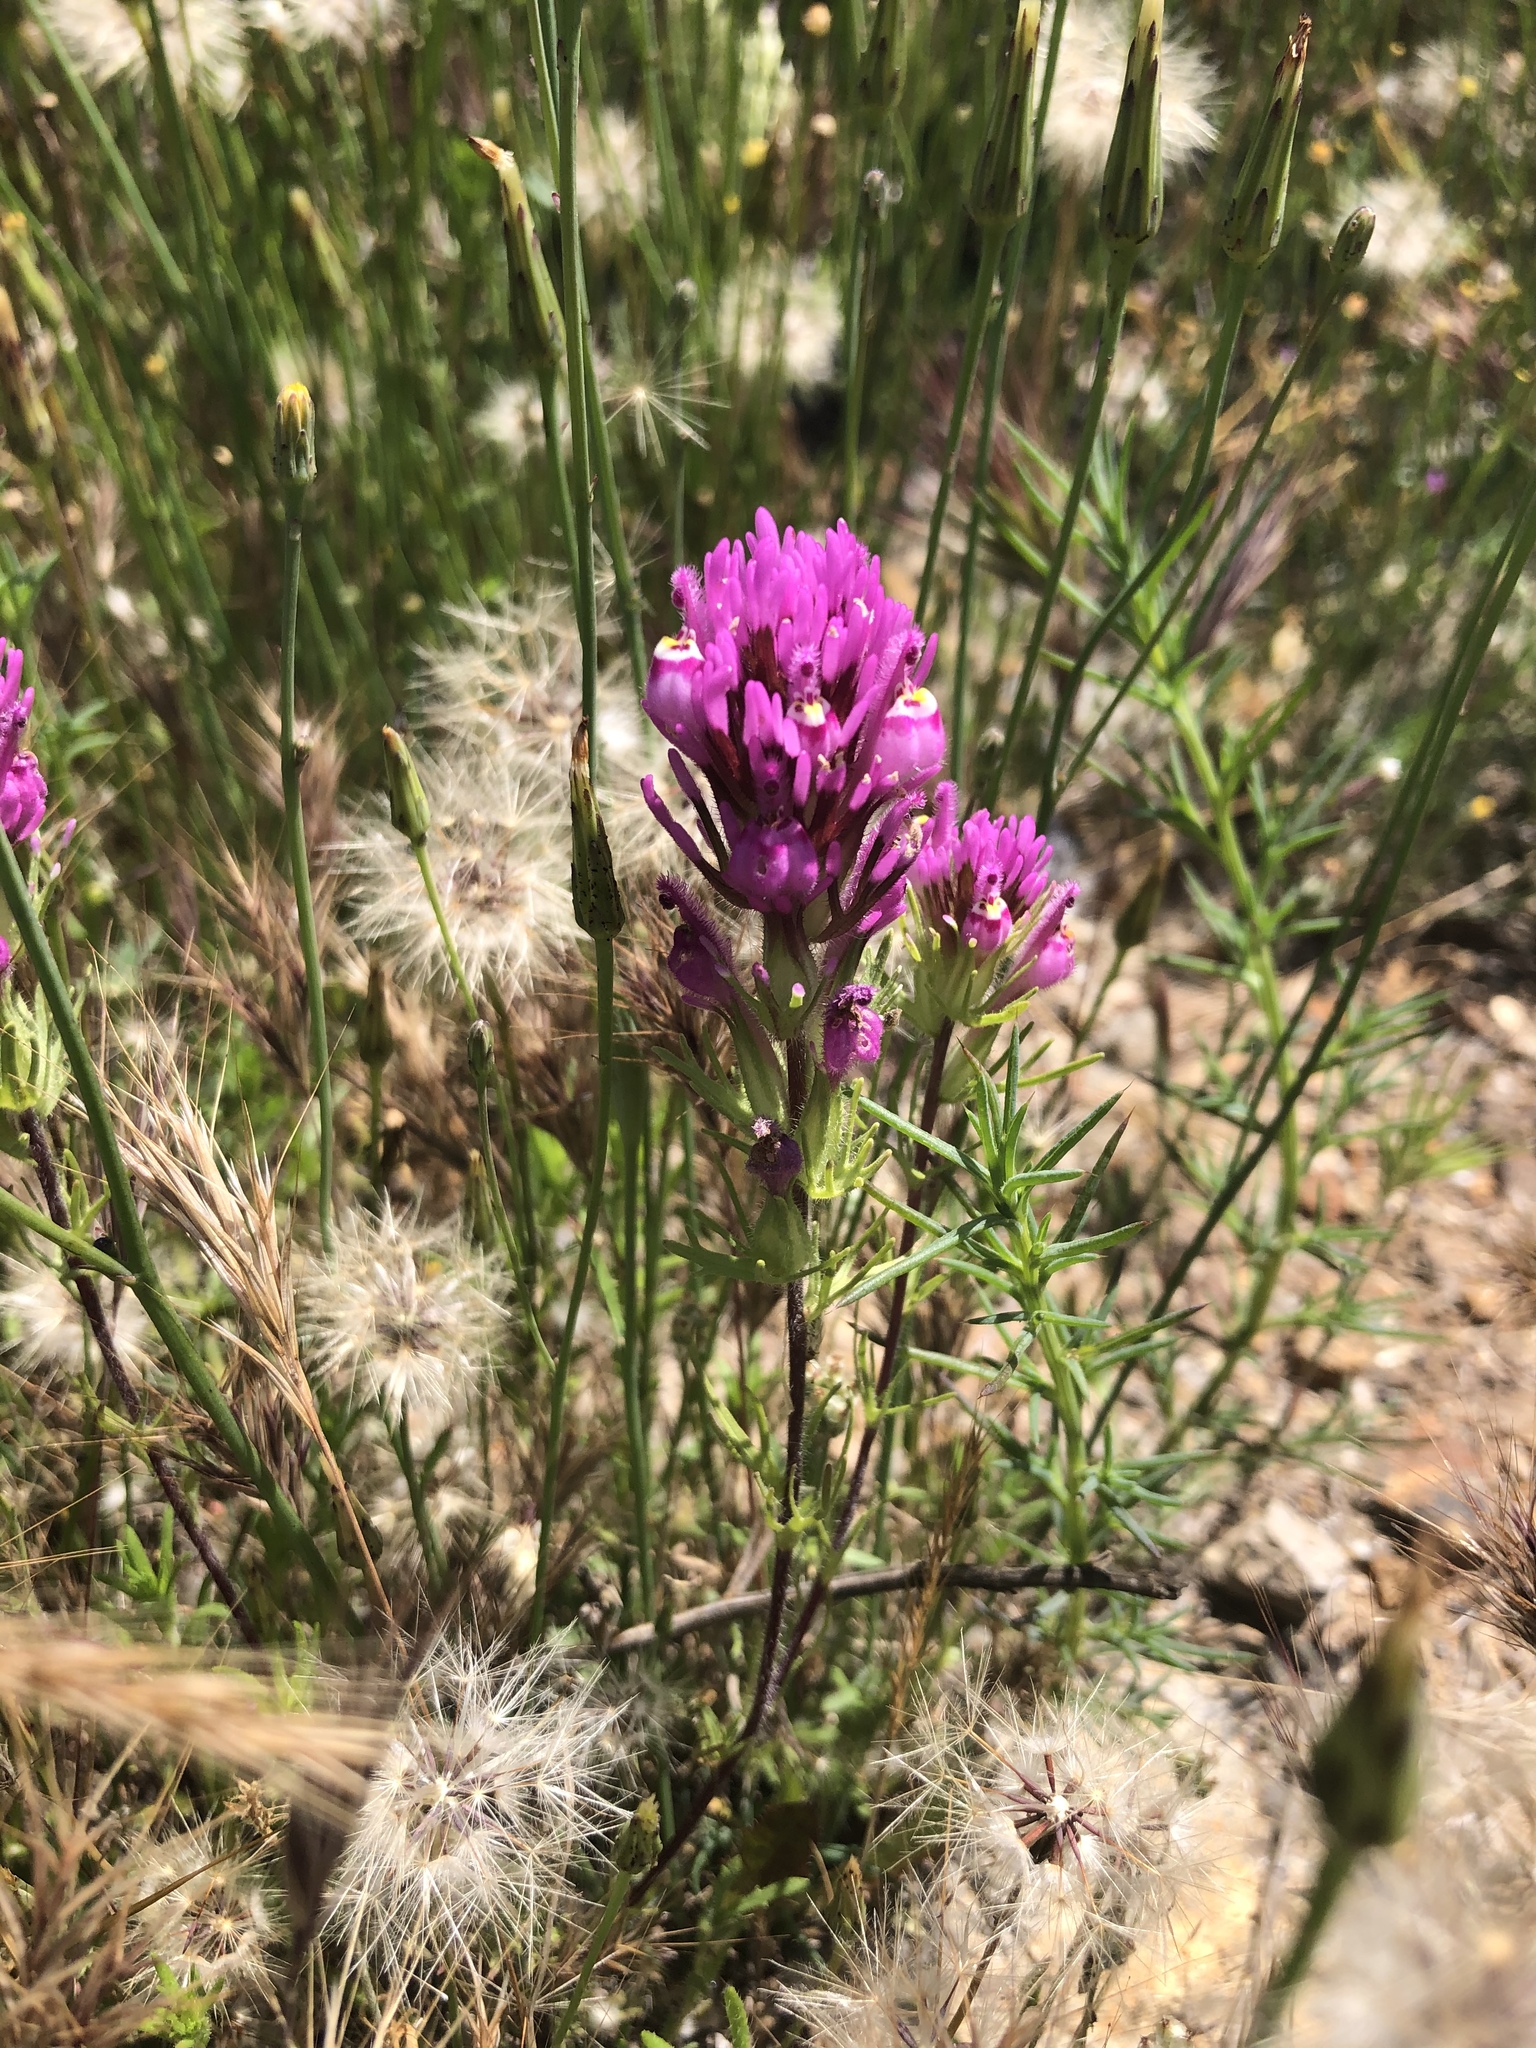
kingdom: Plantae
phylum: Tracheophyta
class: Magnoliopsida
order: Lamiales
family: Orobanchaceae
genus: Castilleja
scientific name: Castilleja exserta
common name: Purple owl-clover
